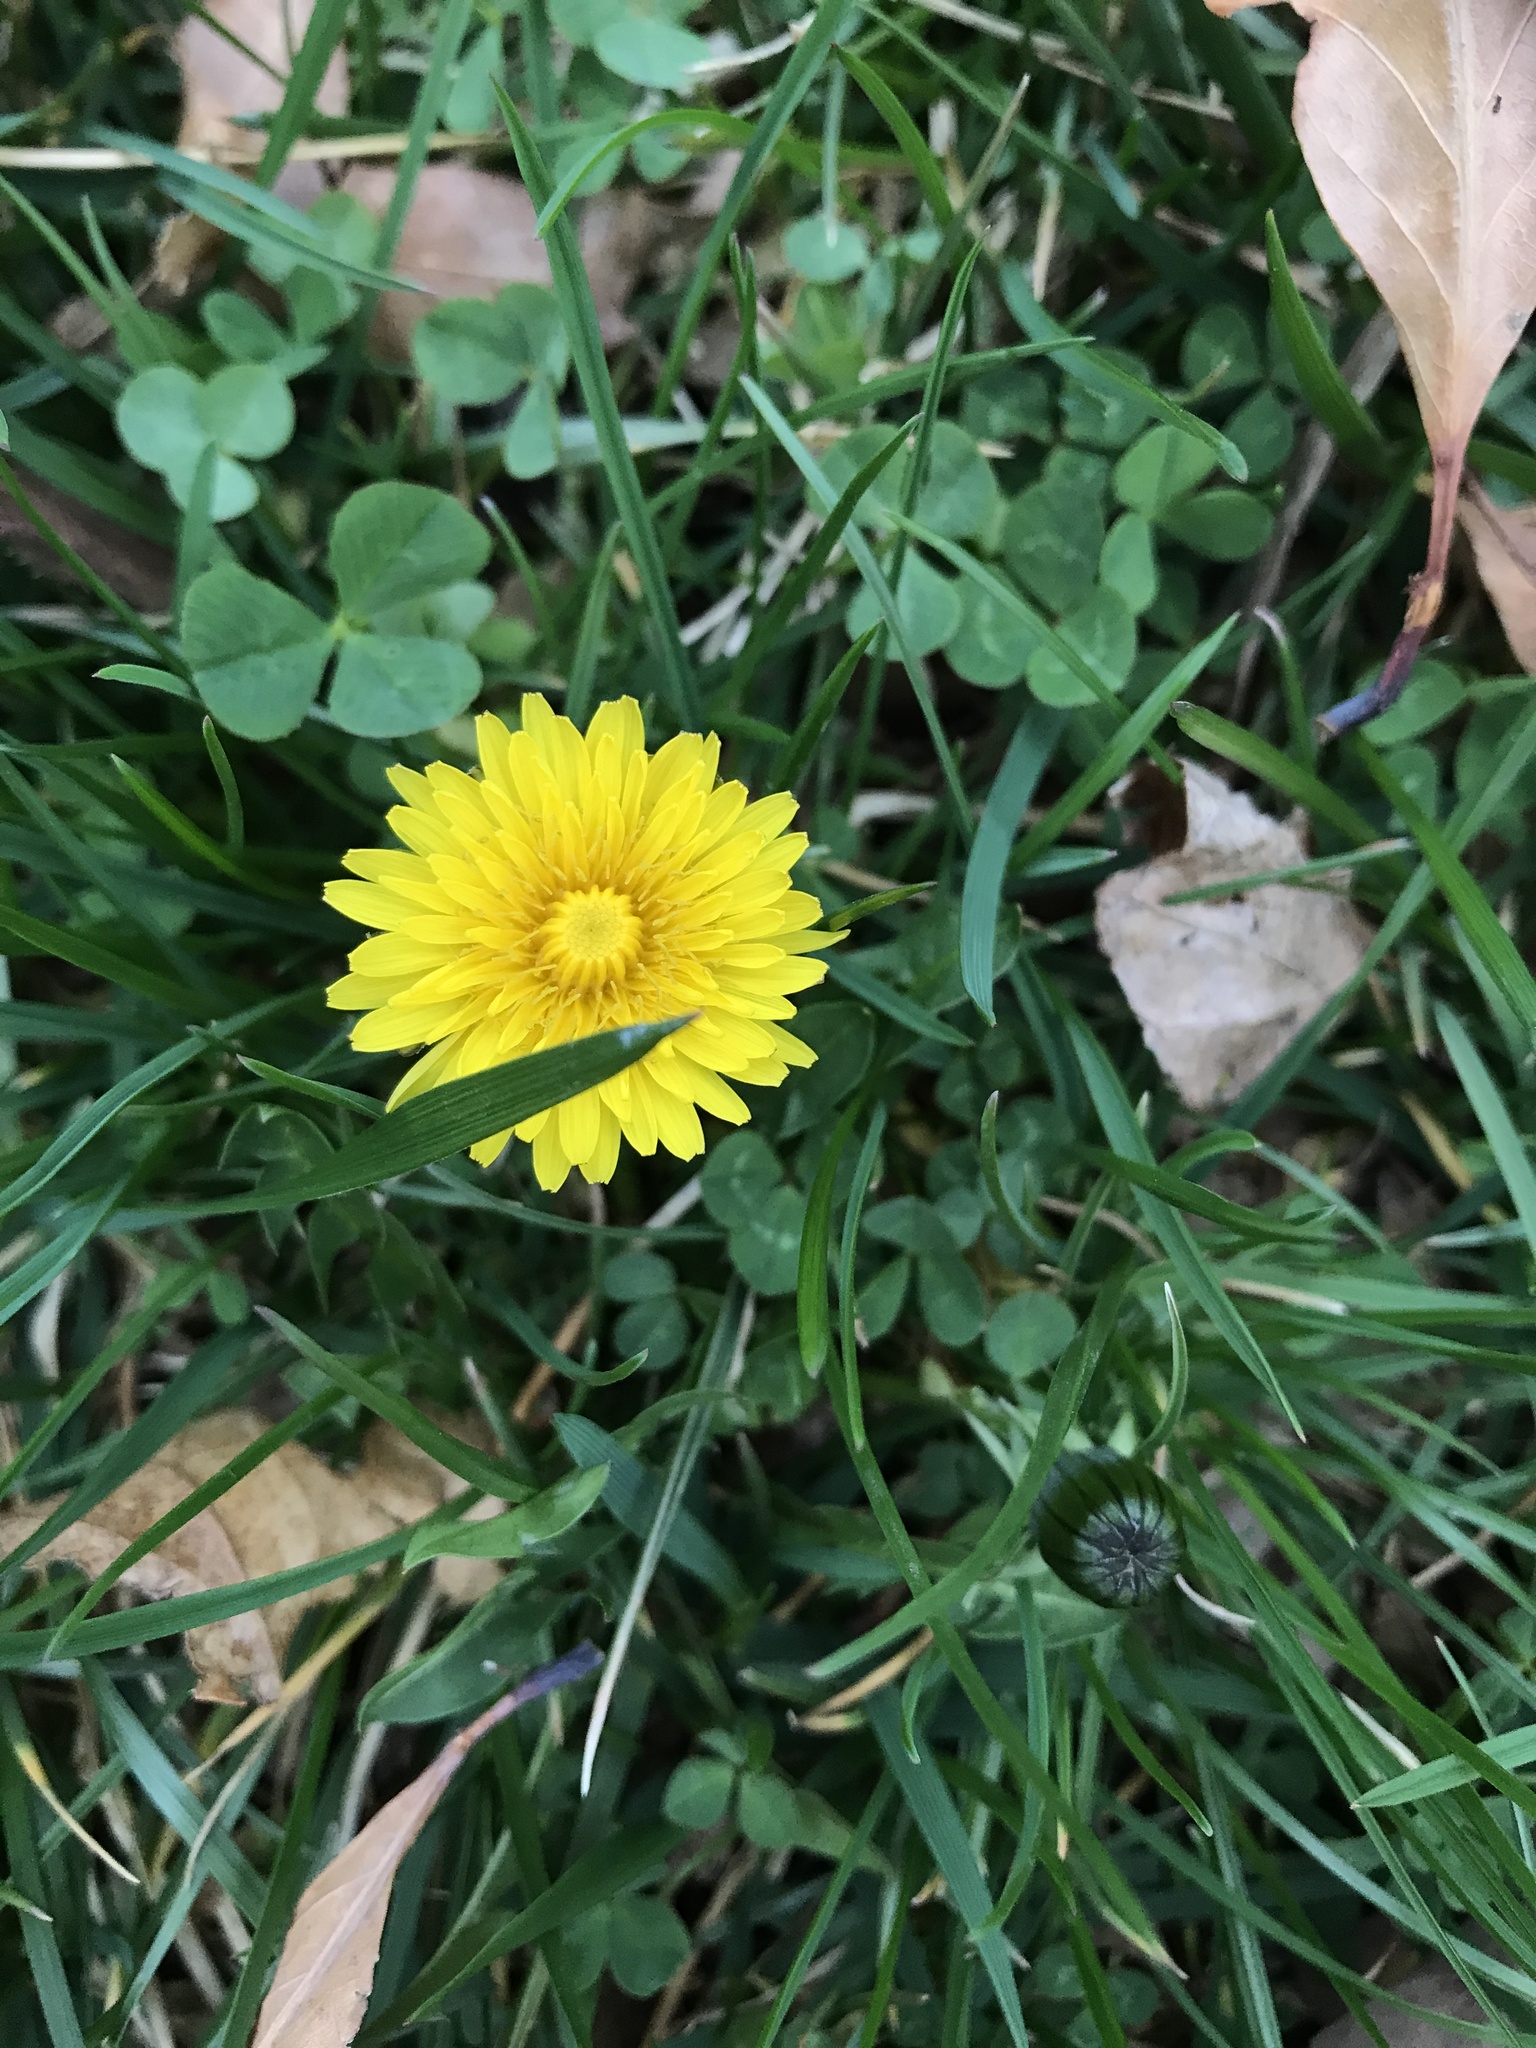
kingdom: Plantae
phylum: Tracheophyta
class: Magnoliopsida
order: Asterales
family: Asteraceae
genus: Taraxacum
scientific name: Taraxacum officinale
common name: Common dandelion
